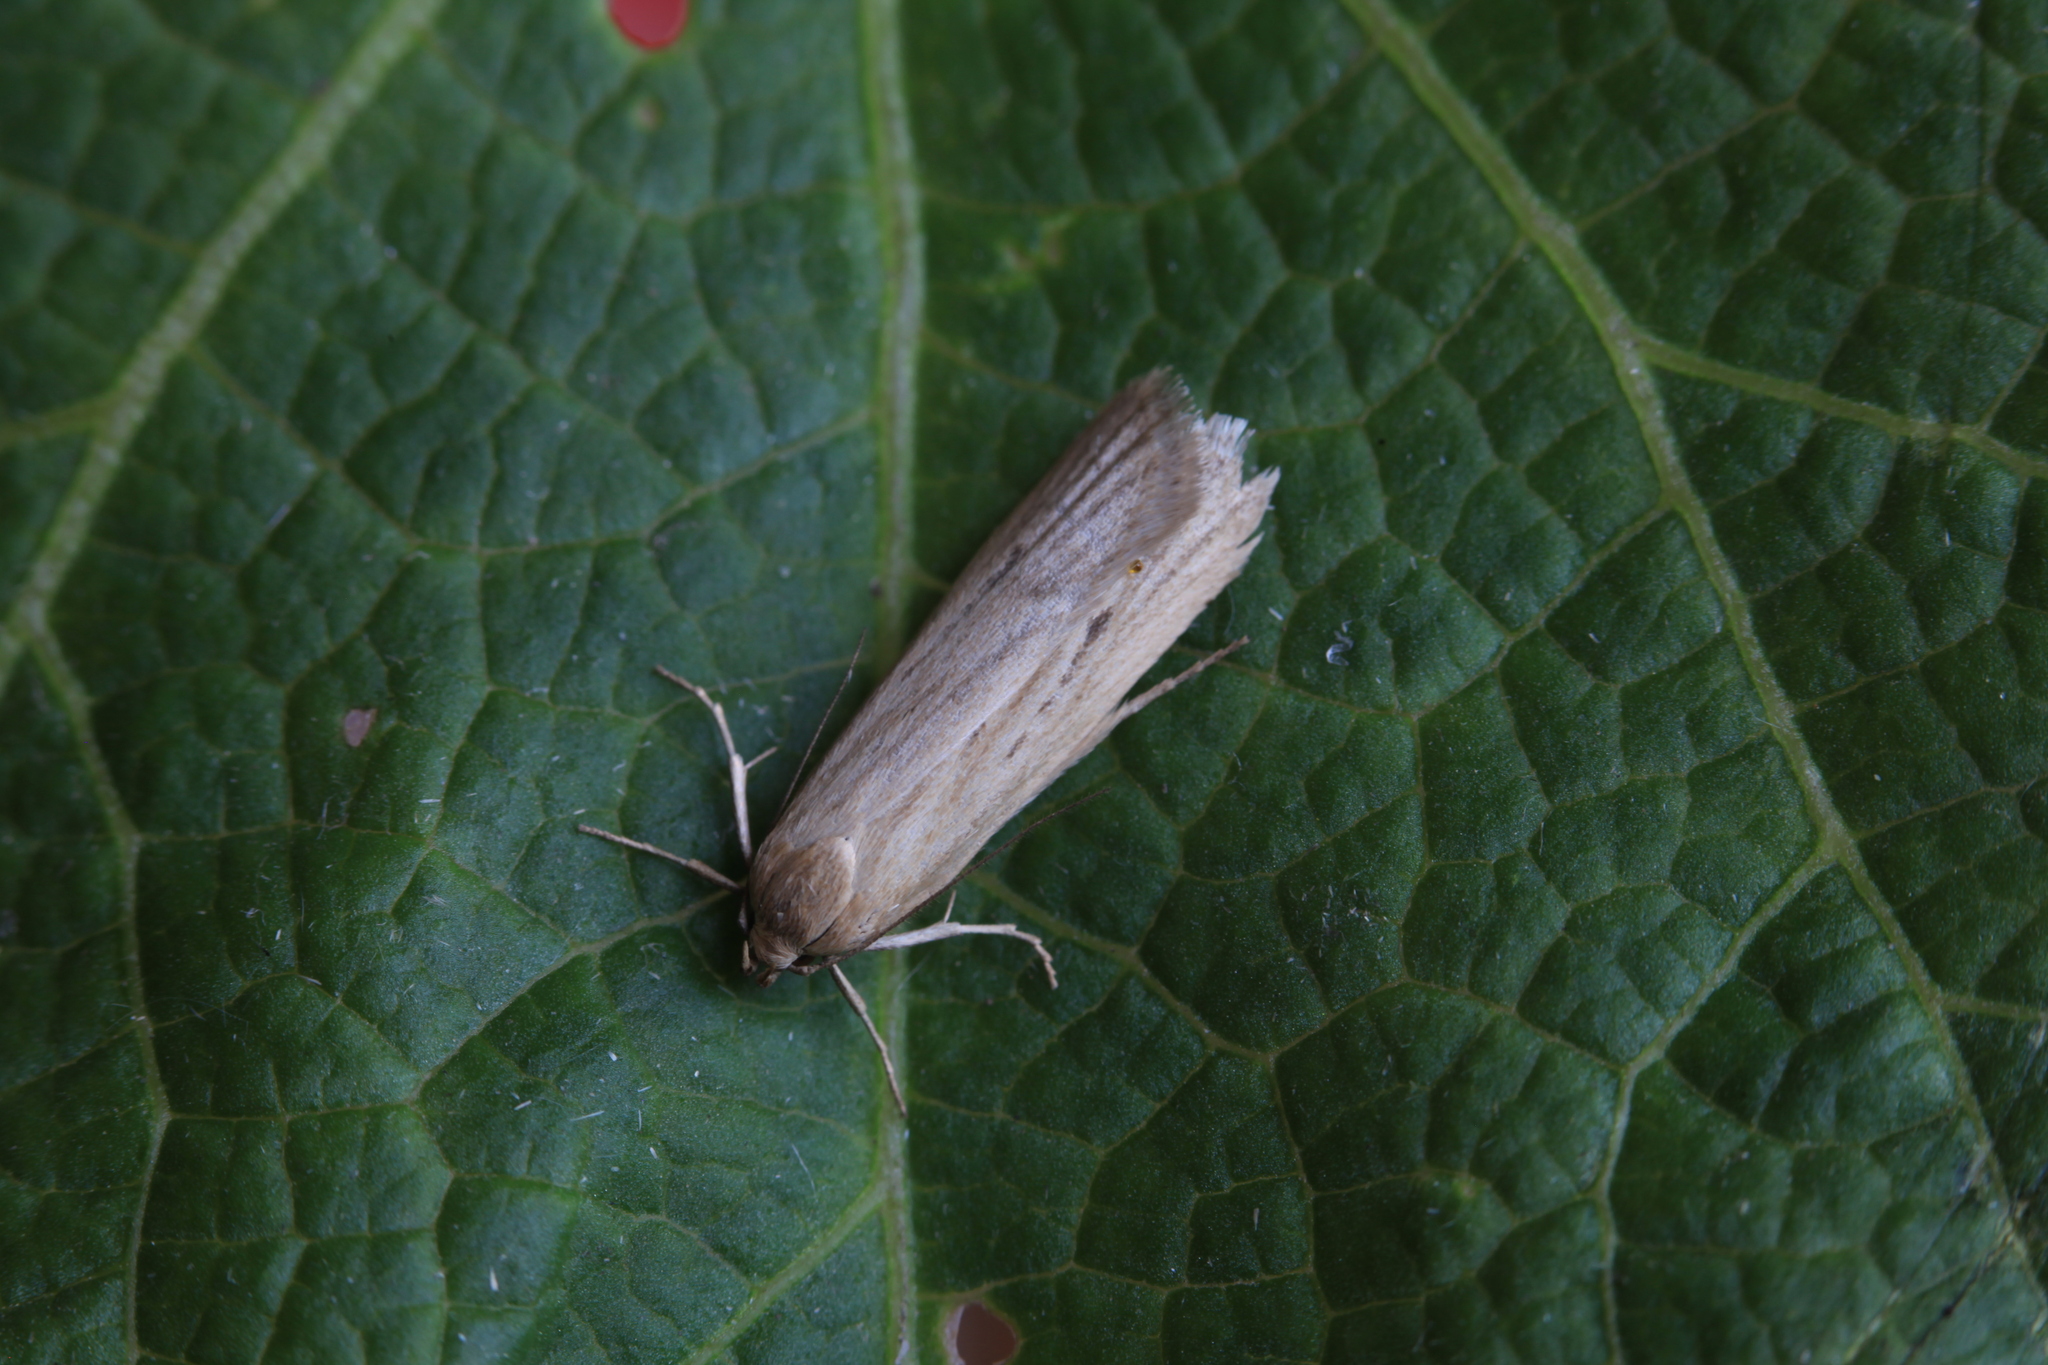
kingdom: Animalia
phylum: Arthropoda
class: Insecta
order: Lepidoptera
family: Autostichidae
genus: Deroxena
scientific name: Deroxena venosulella
